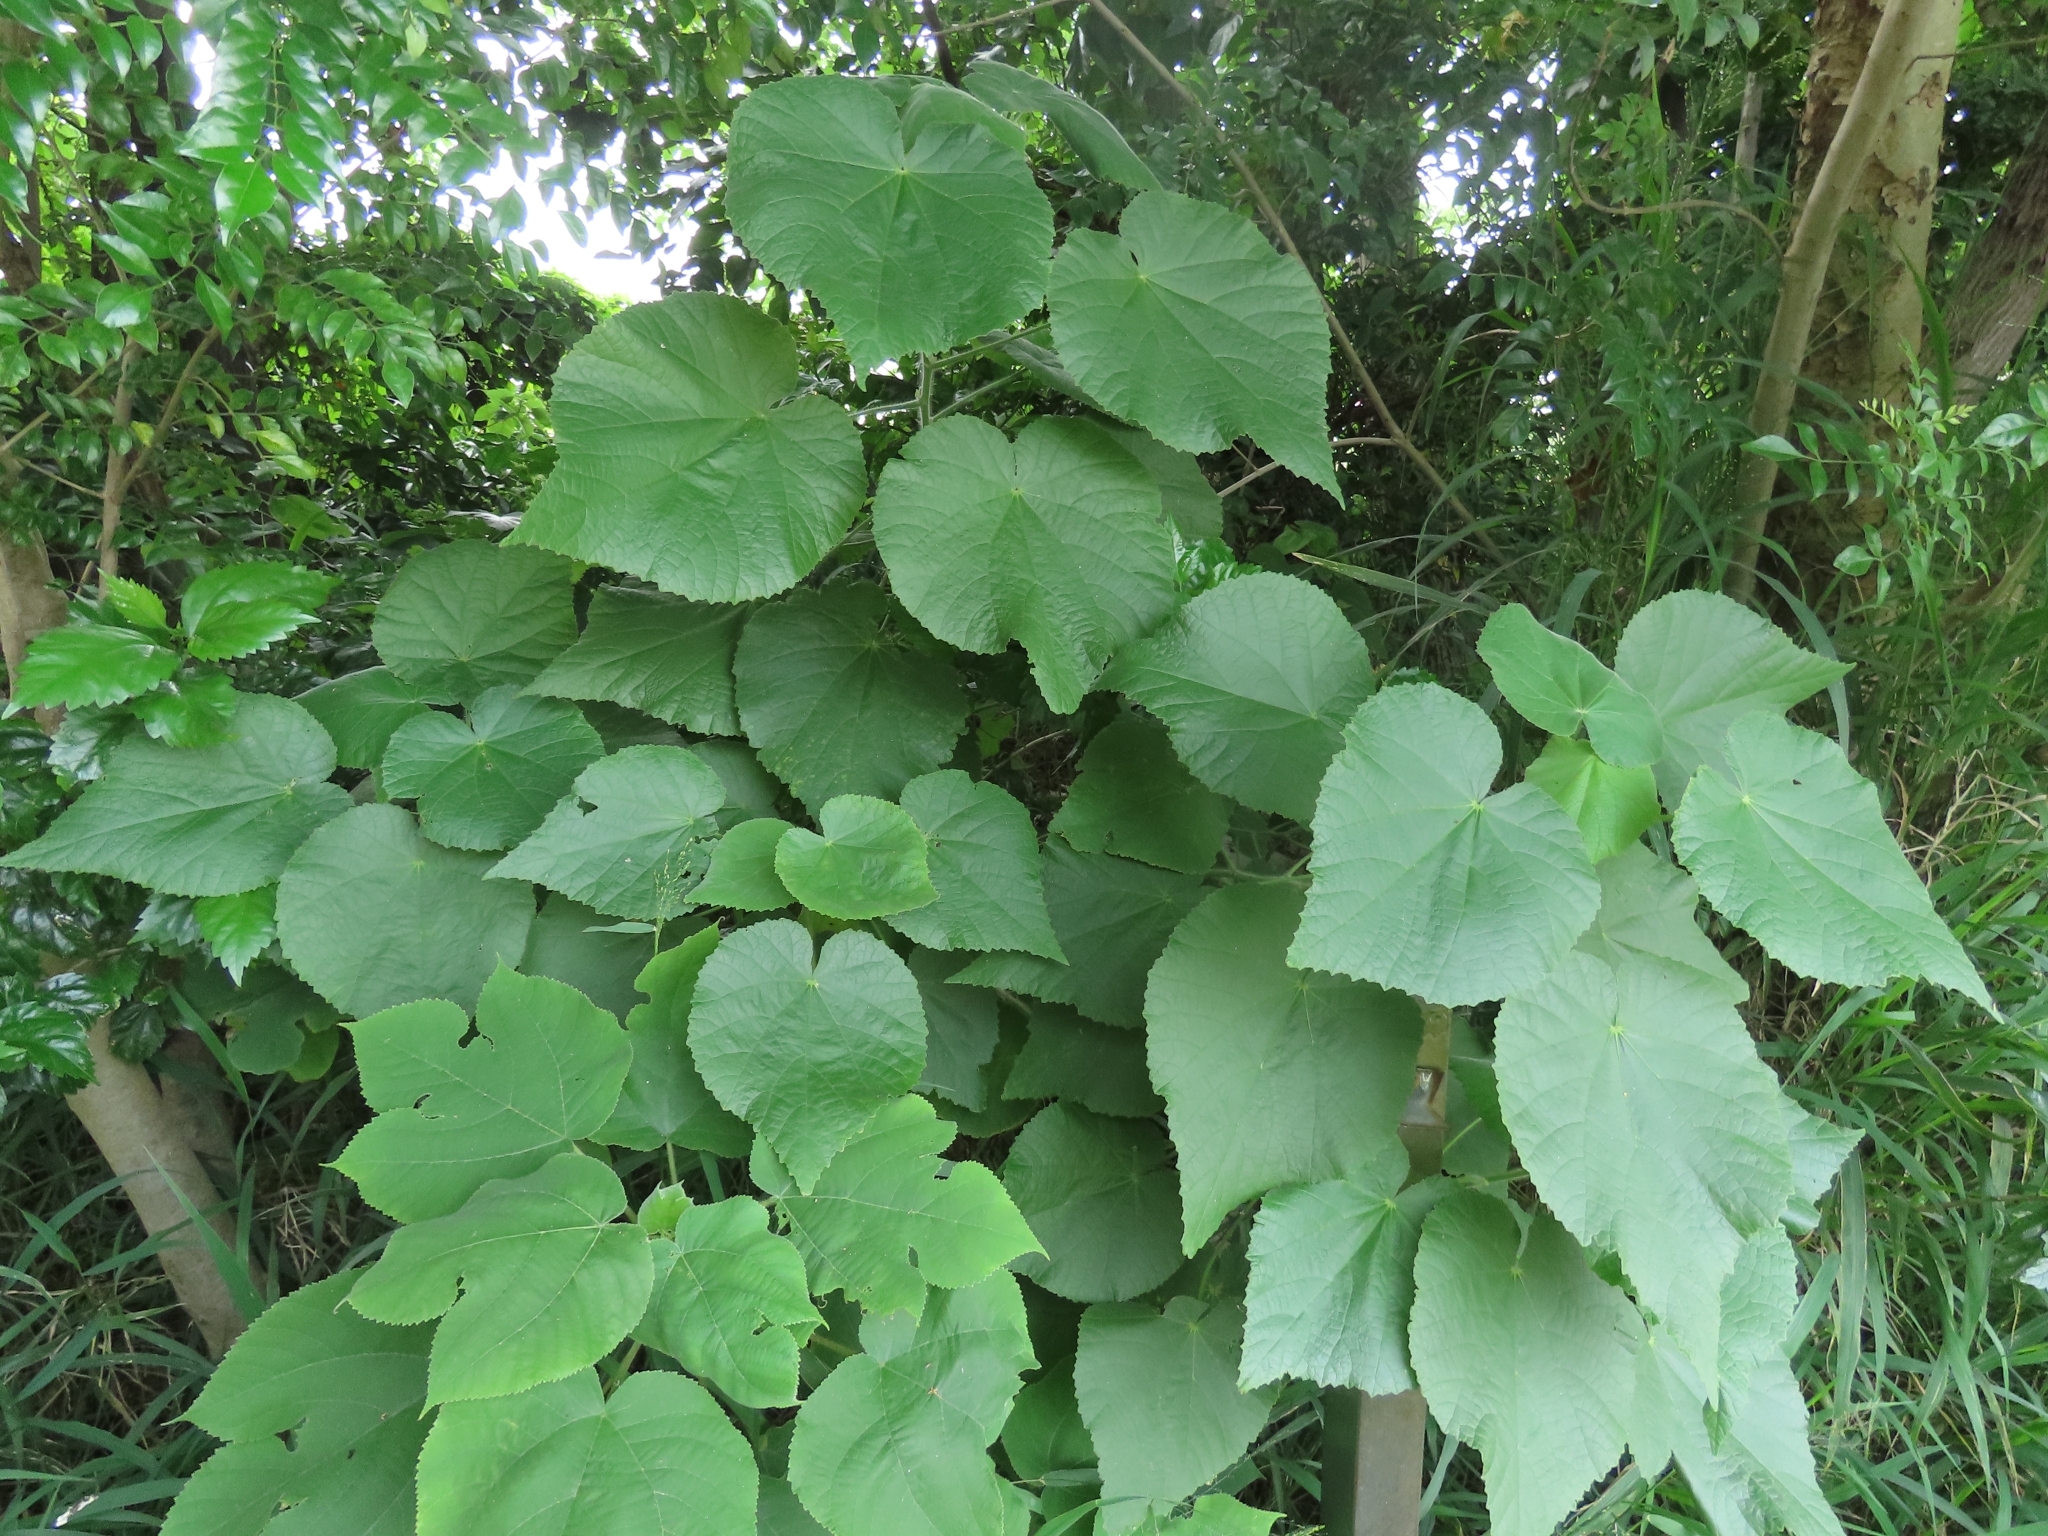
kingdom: Plantae
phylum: Tracheophyta
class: Magnoliopsida
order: Malvales
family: Malvaceae
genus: Abutilon
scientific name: Abutilon grandifolium
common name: Hairy abutilon
